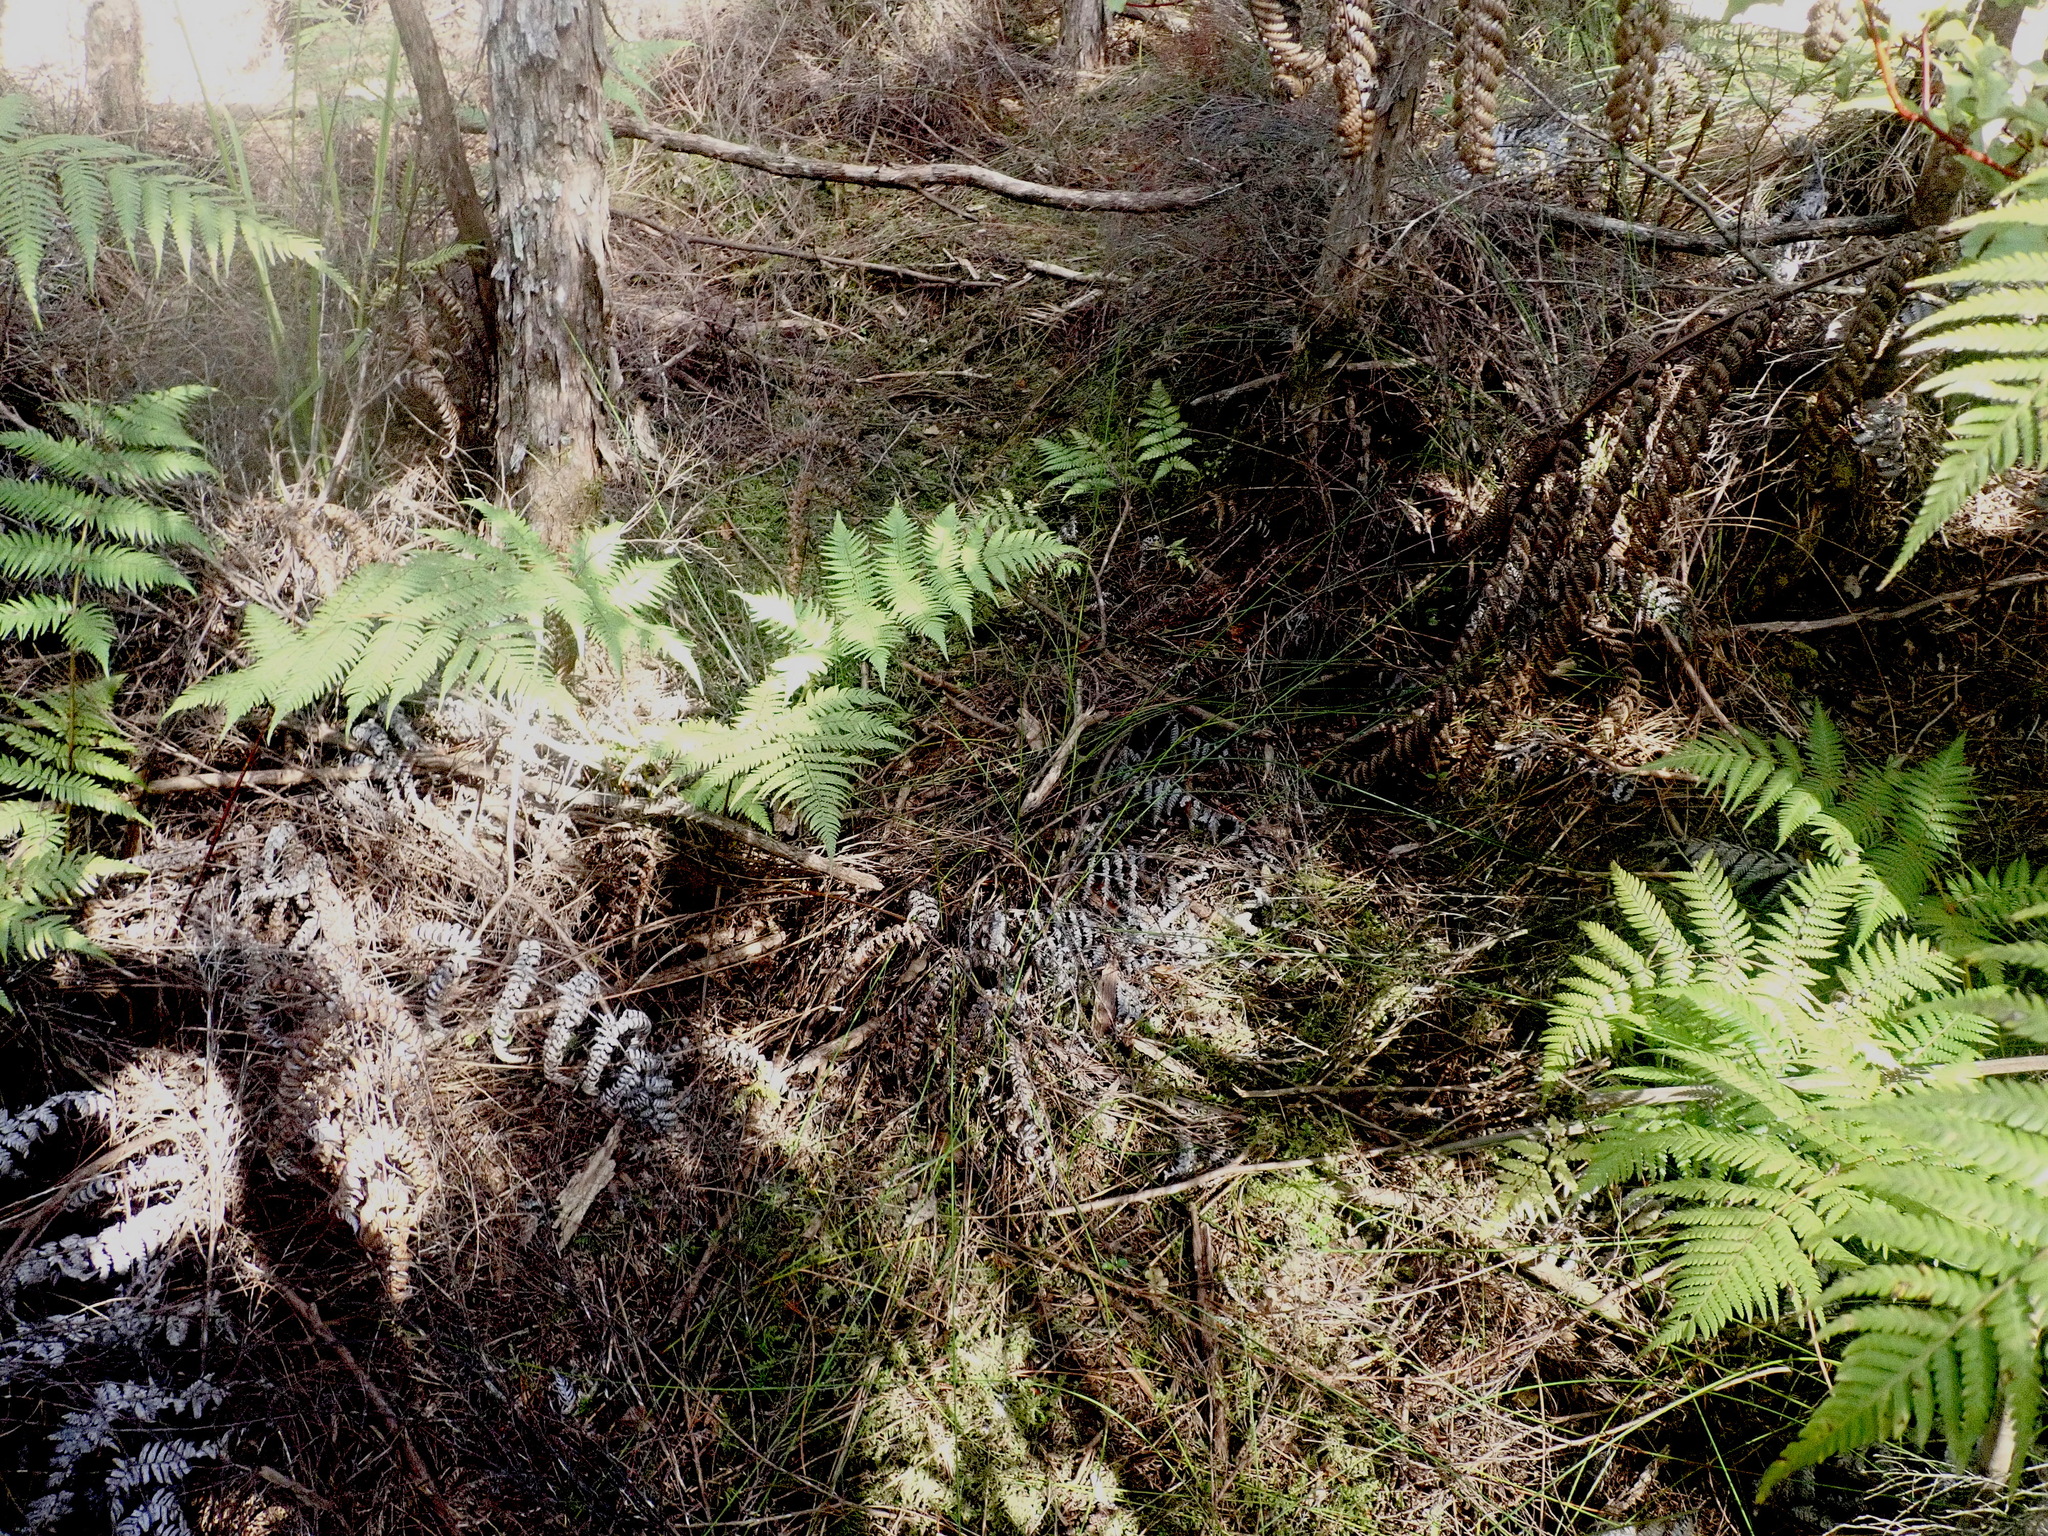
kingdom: Plantae
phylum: Tracheophyta
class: Polypodiopsida
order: Cyatheales
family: Cyatheaceae
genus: Alsophila
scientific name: Alsophila dealbata
